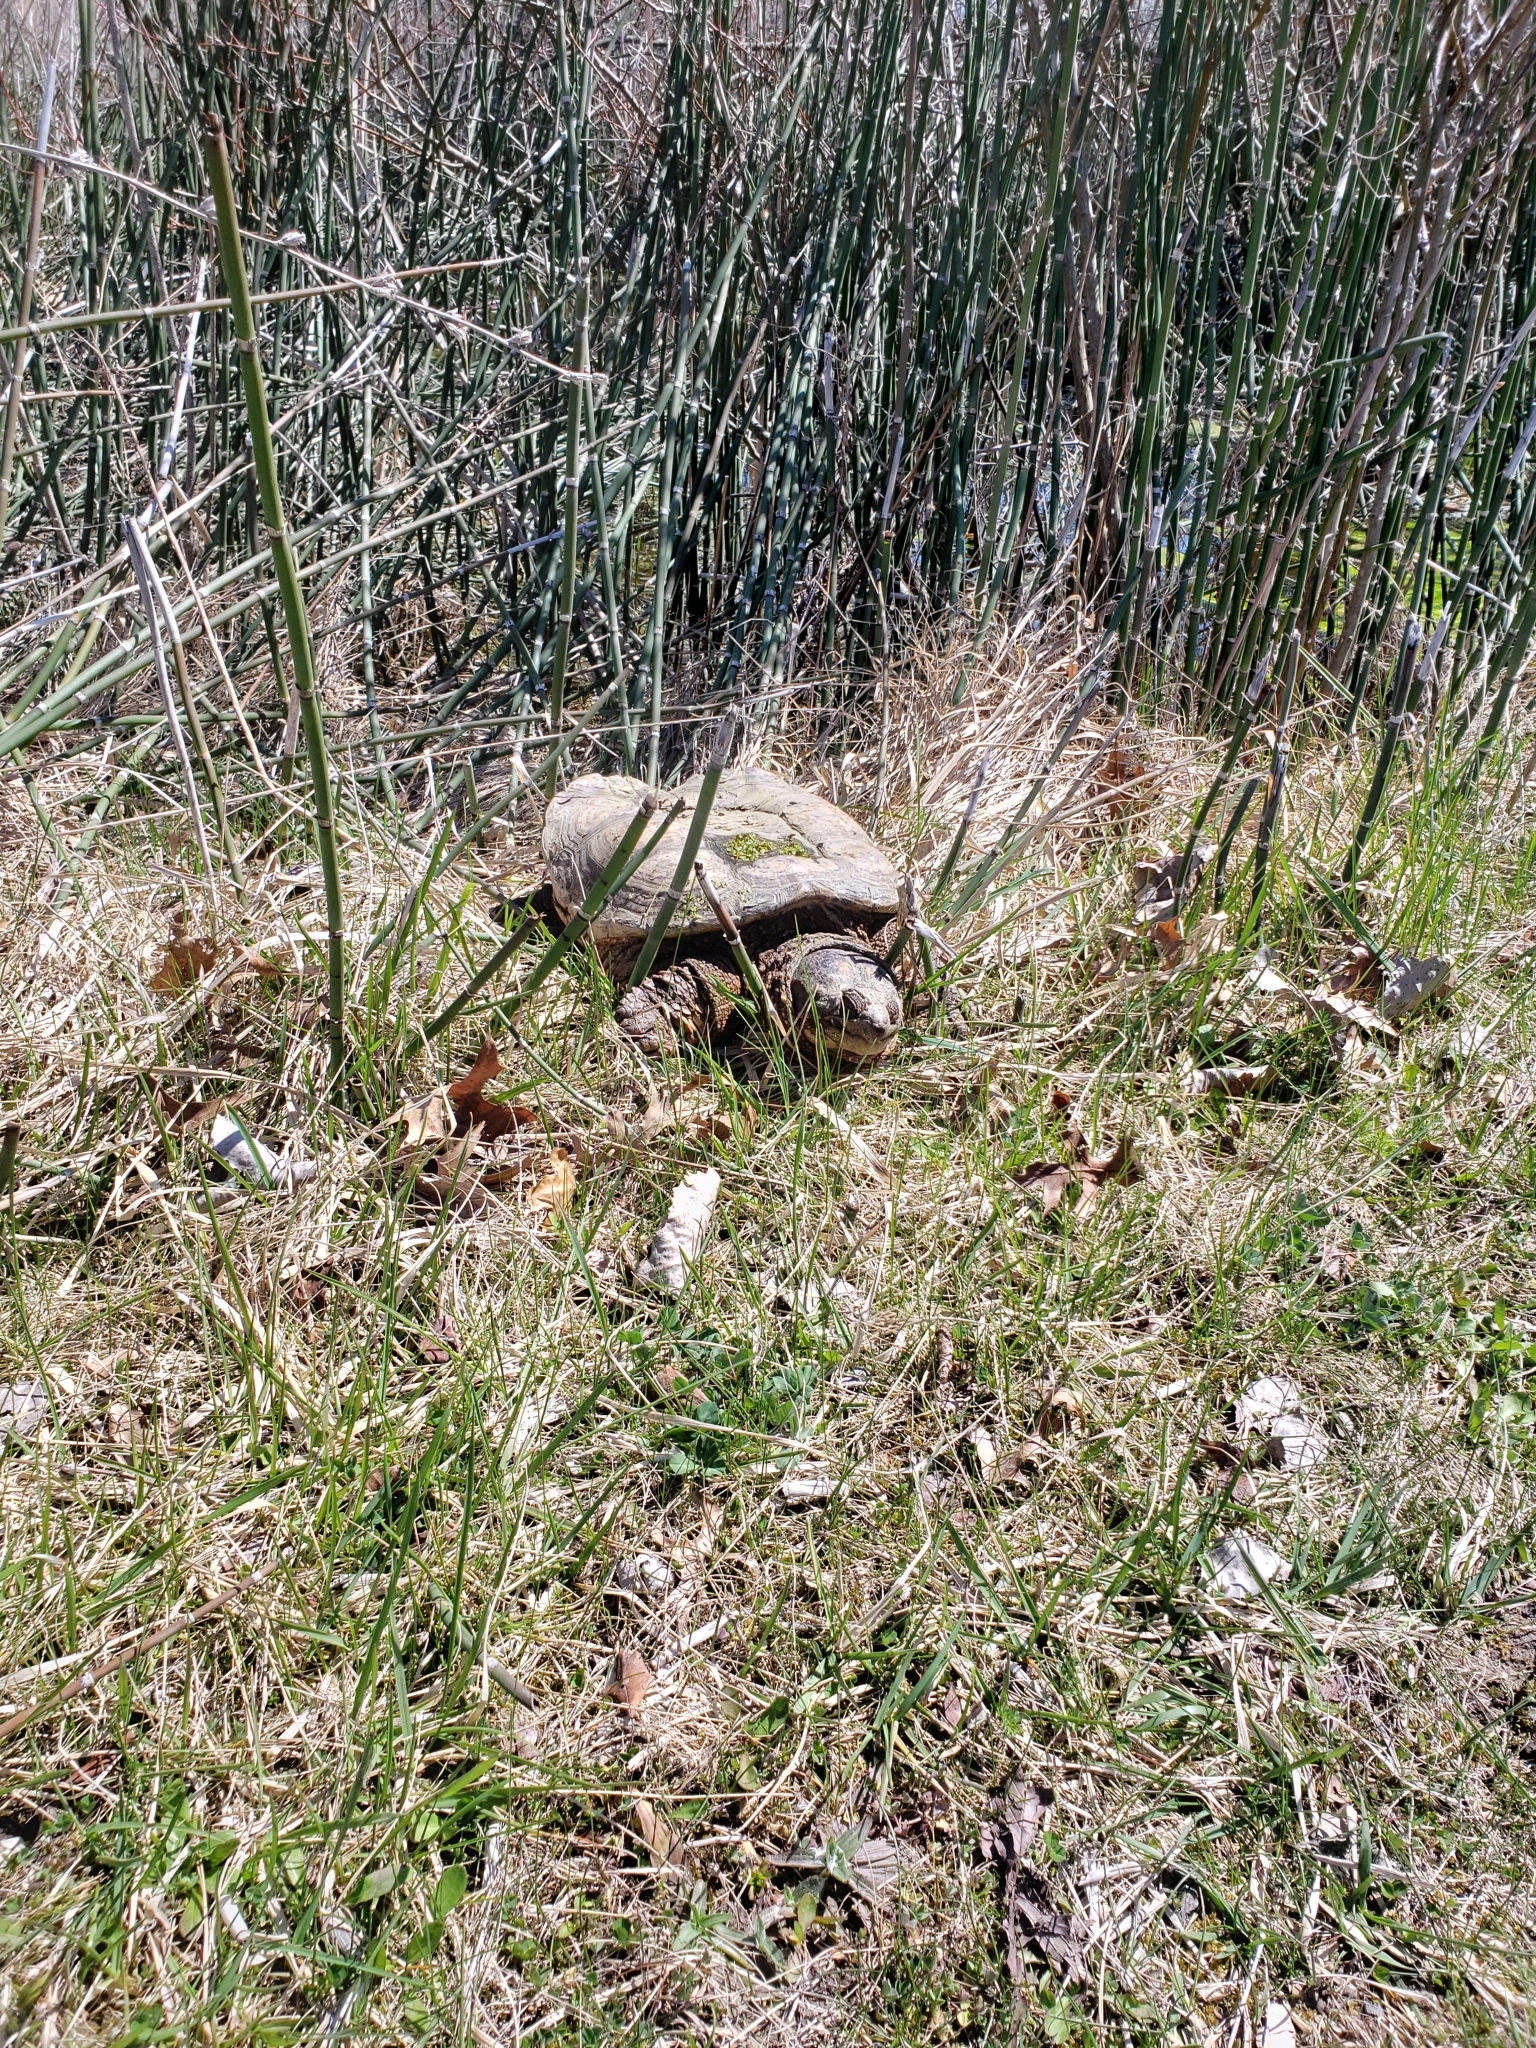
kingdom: Animalia
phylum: Chordata
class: Testudines
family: Chelydridae
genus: Chelydra
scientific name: Chelydra serpentina
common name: Common snapping turtle
